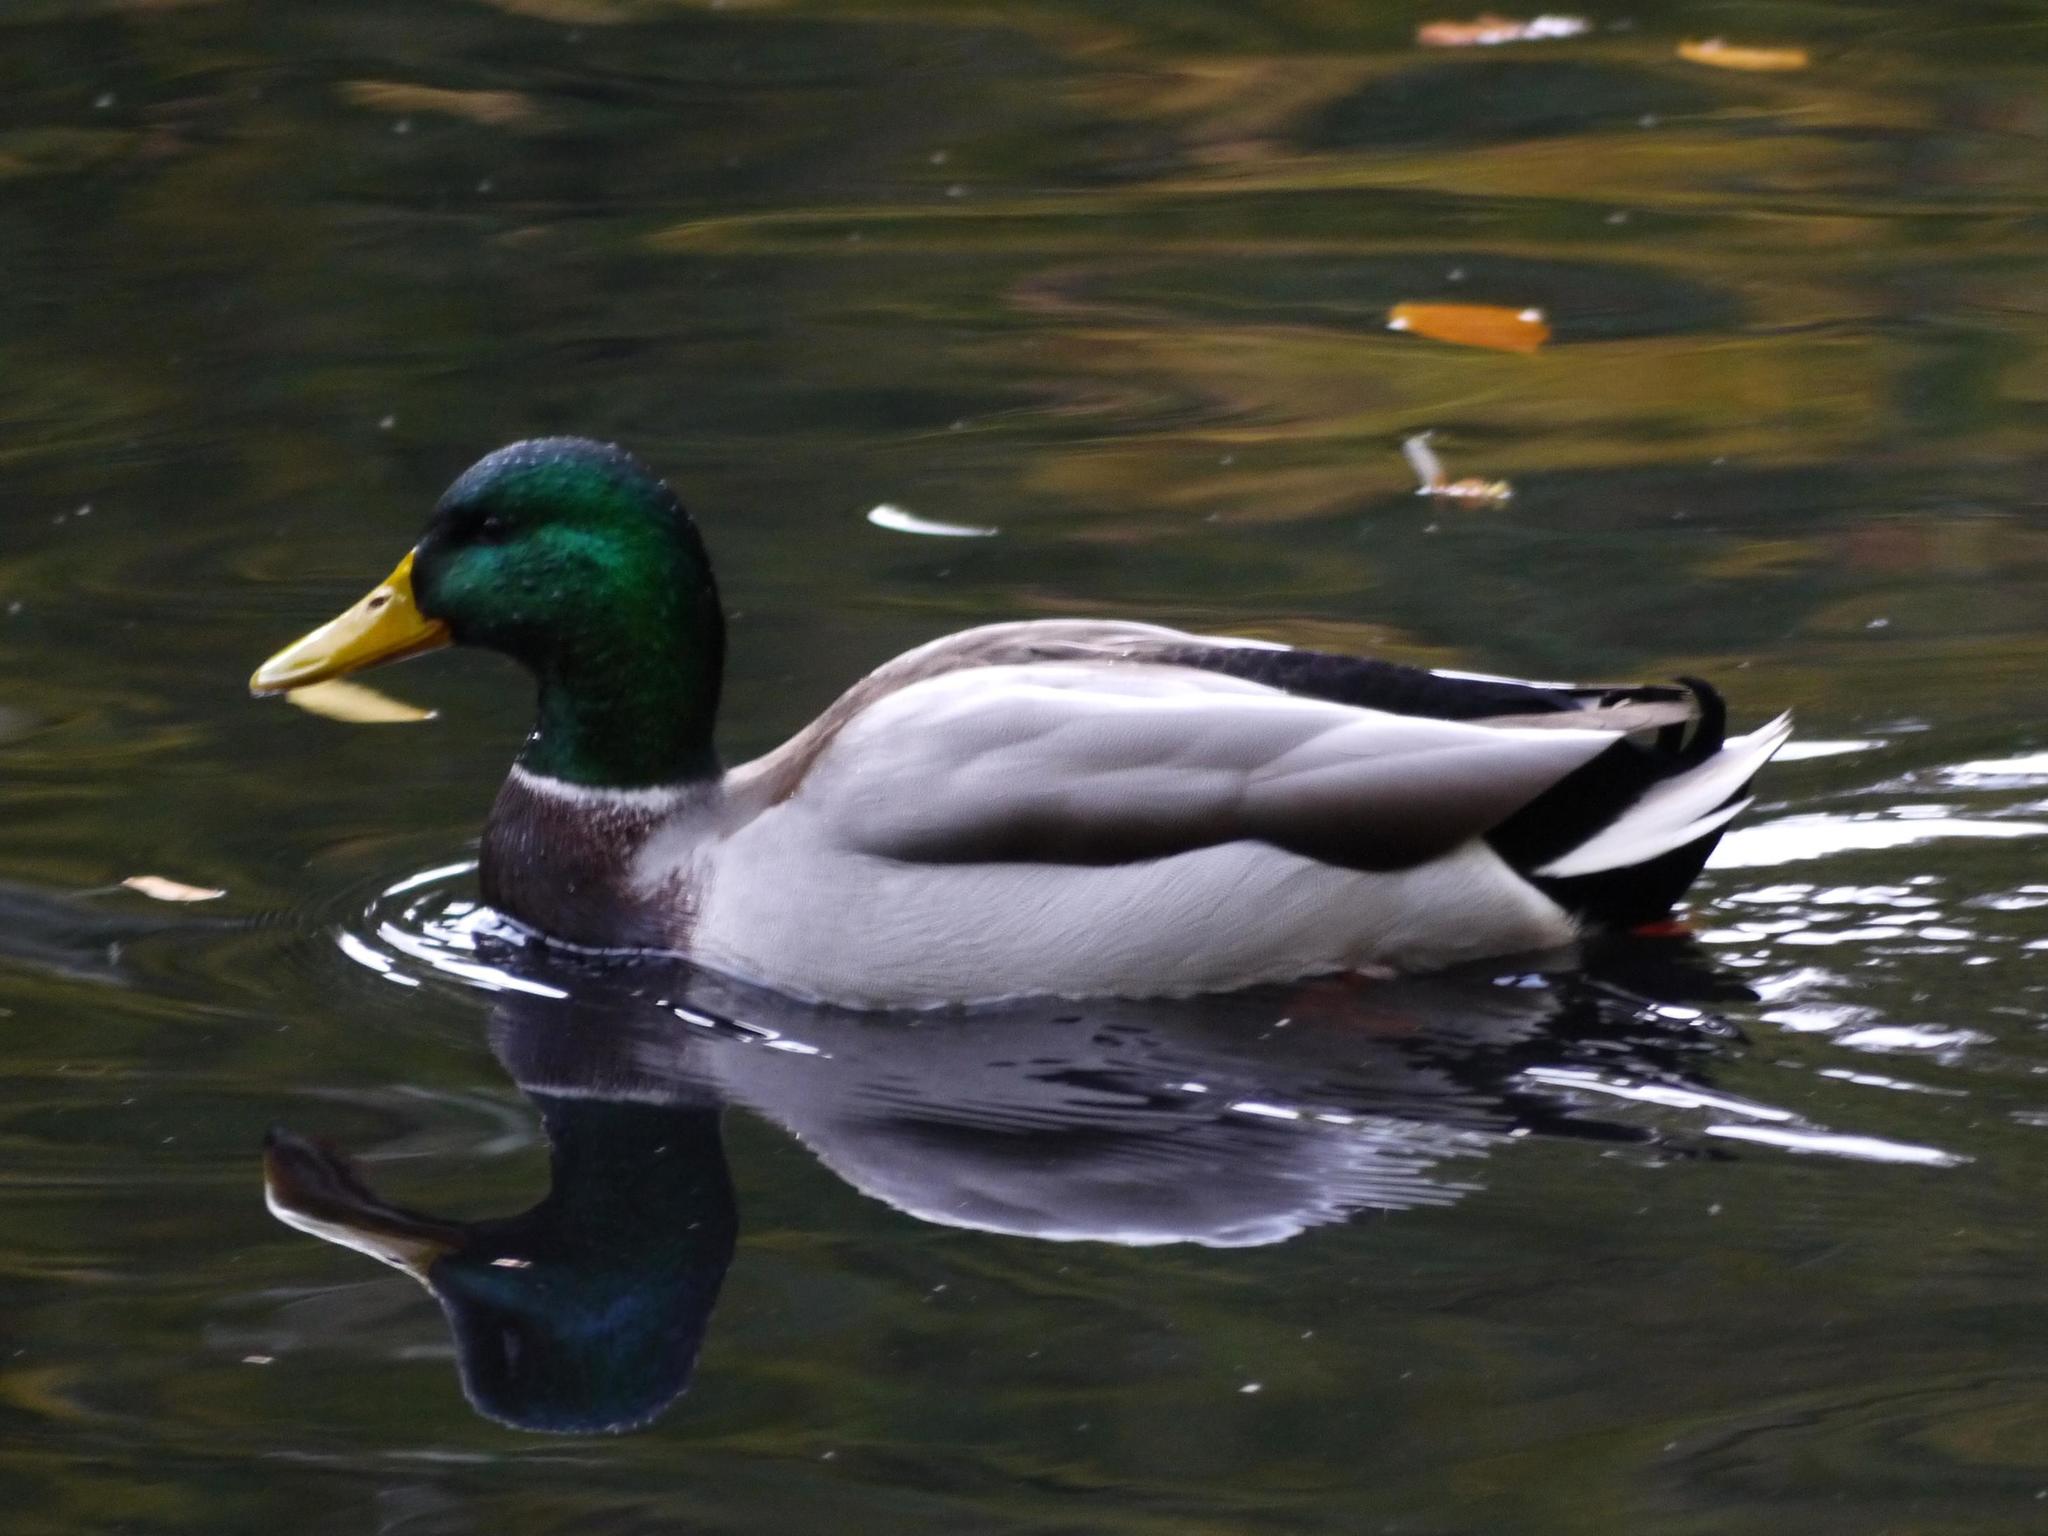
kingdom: Animalia
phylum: Chordata
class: Aves
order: Anseriformes
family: Anatidae
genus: Anas
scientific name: Anas platyrhynchos
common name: Mallard
